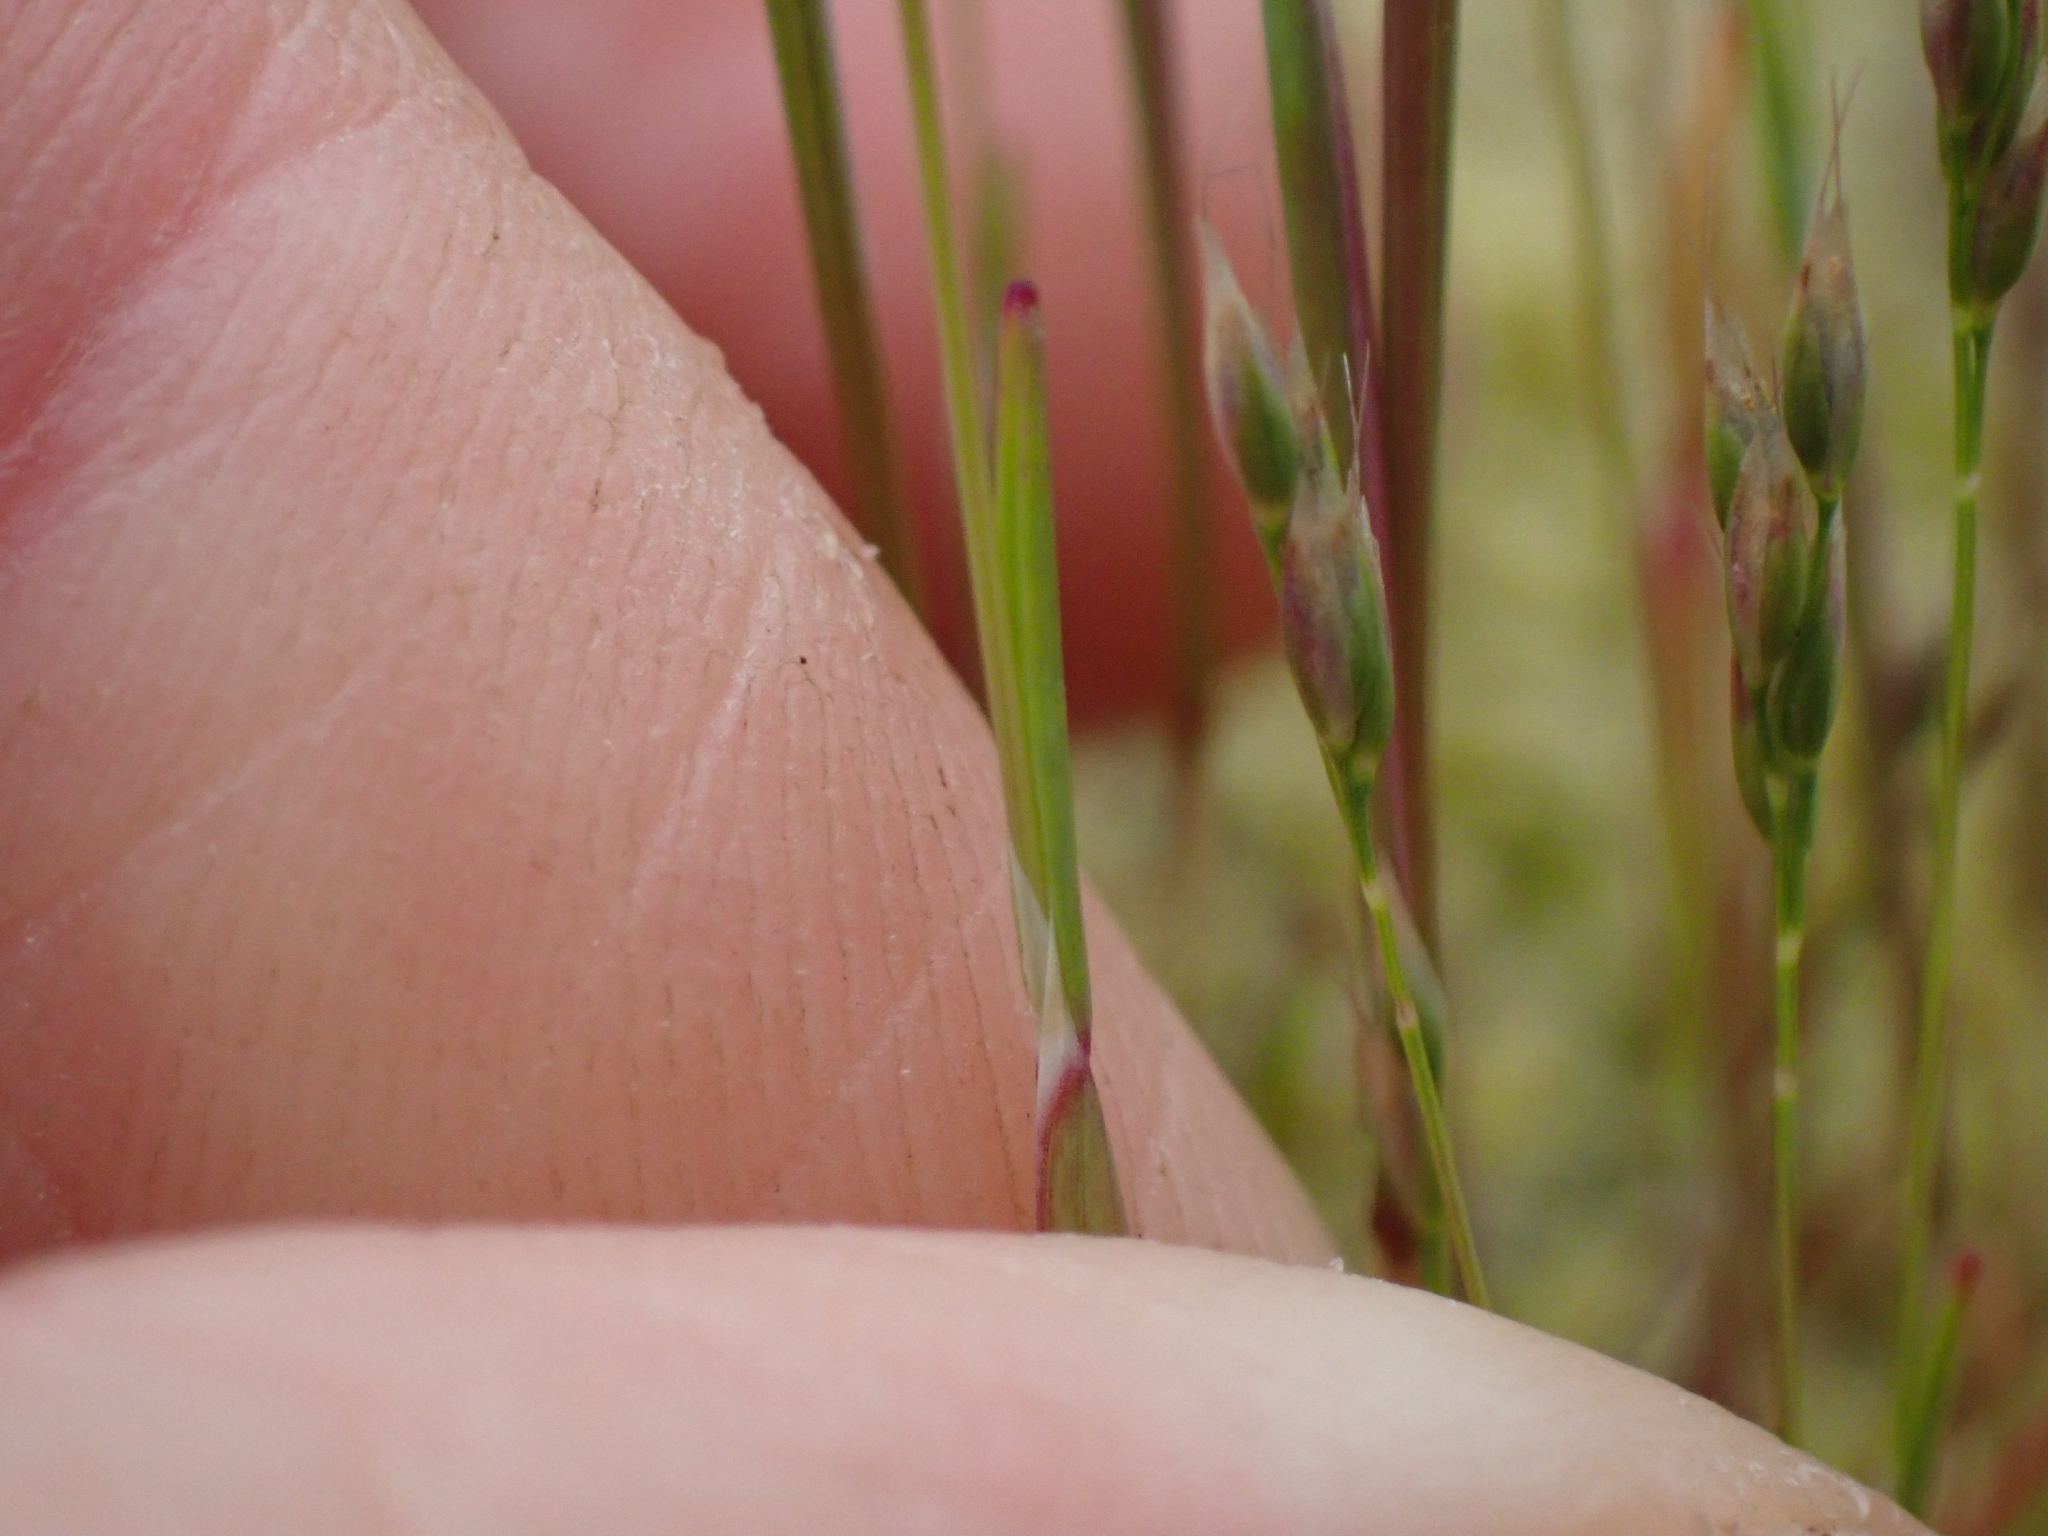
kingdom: Plantae
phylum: Tracheophyta
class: Liliopsida
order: Poales
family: Poaceae
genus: Aira
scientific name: Aira praecox
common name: Early hair-grass
